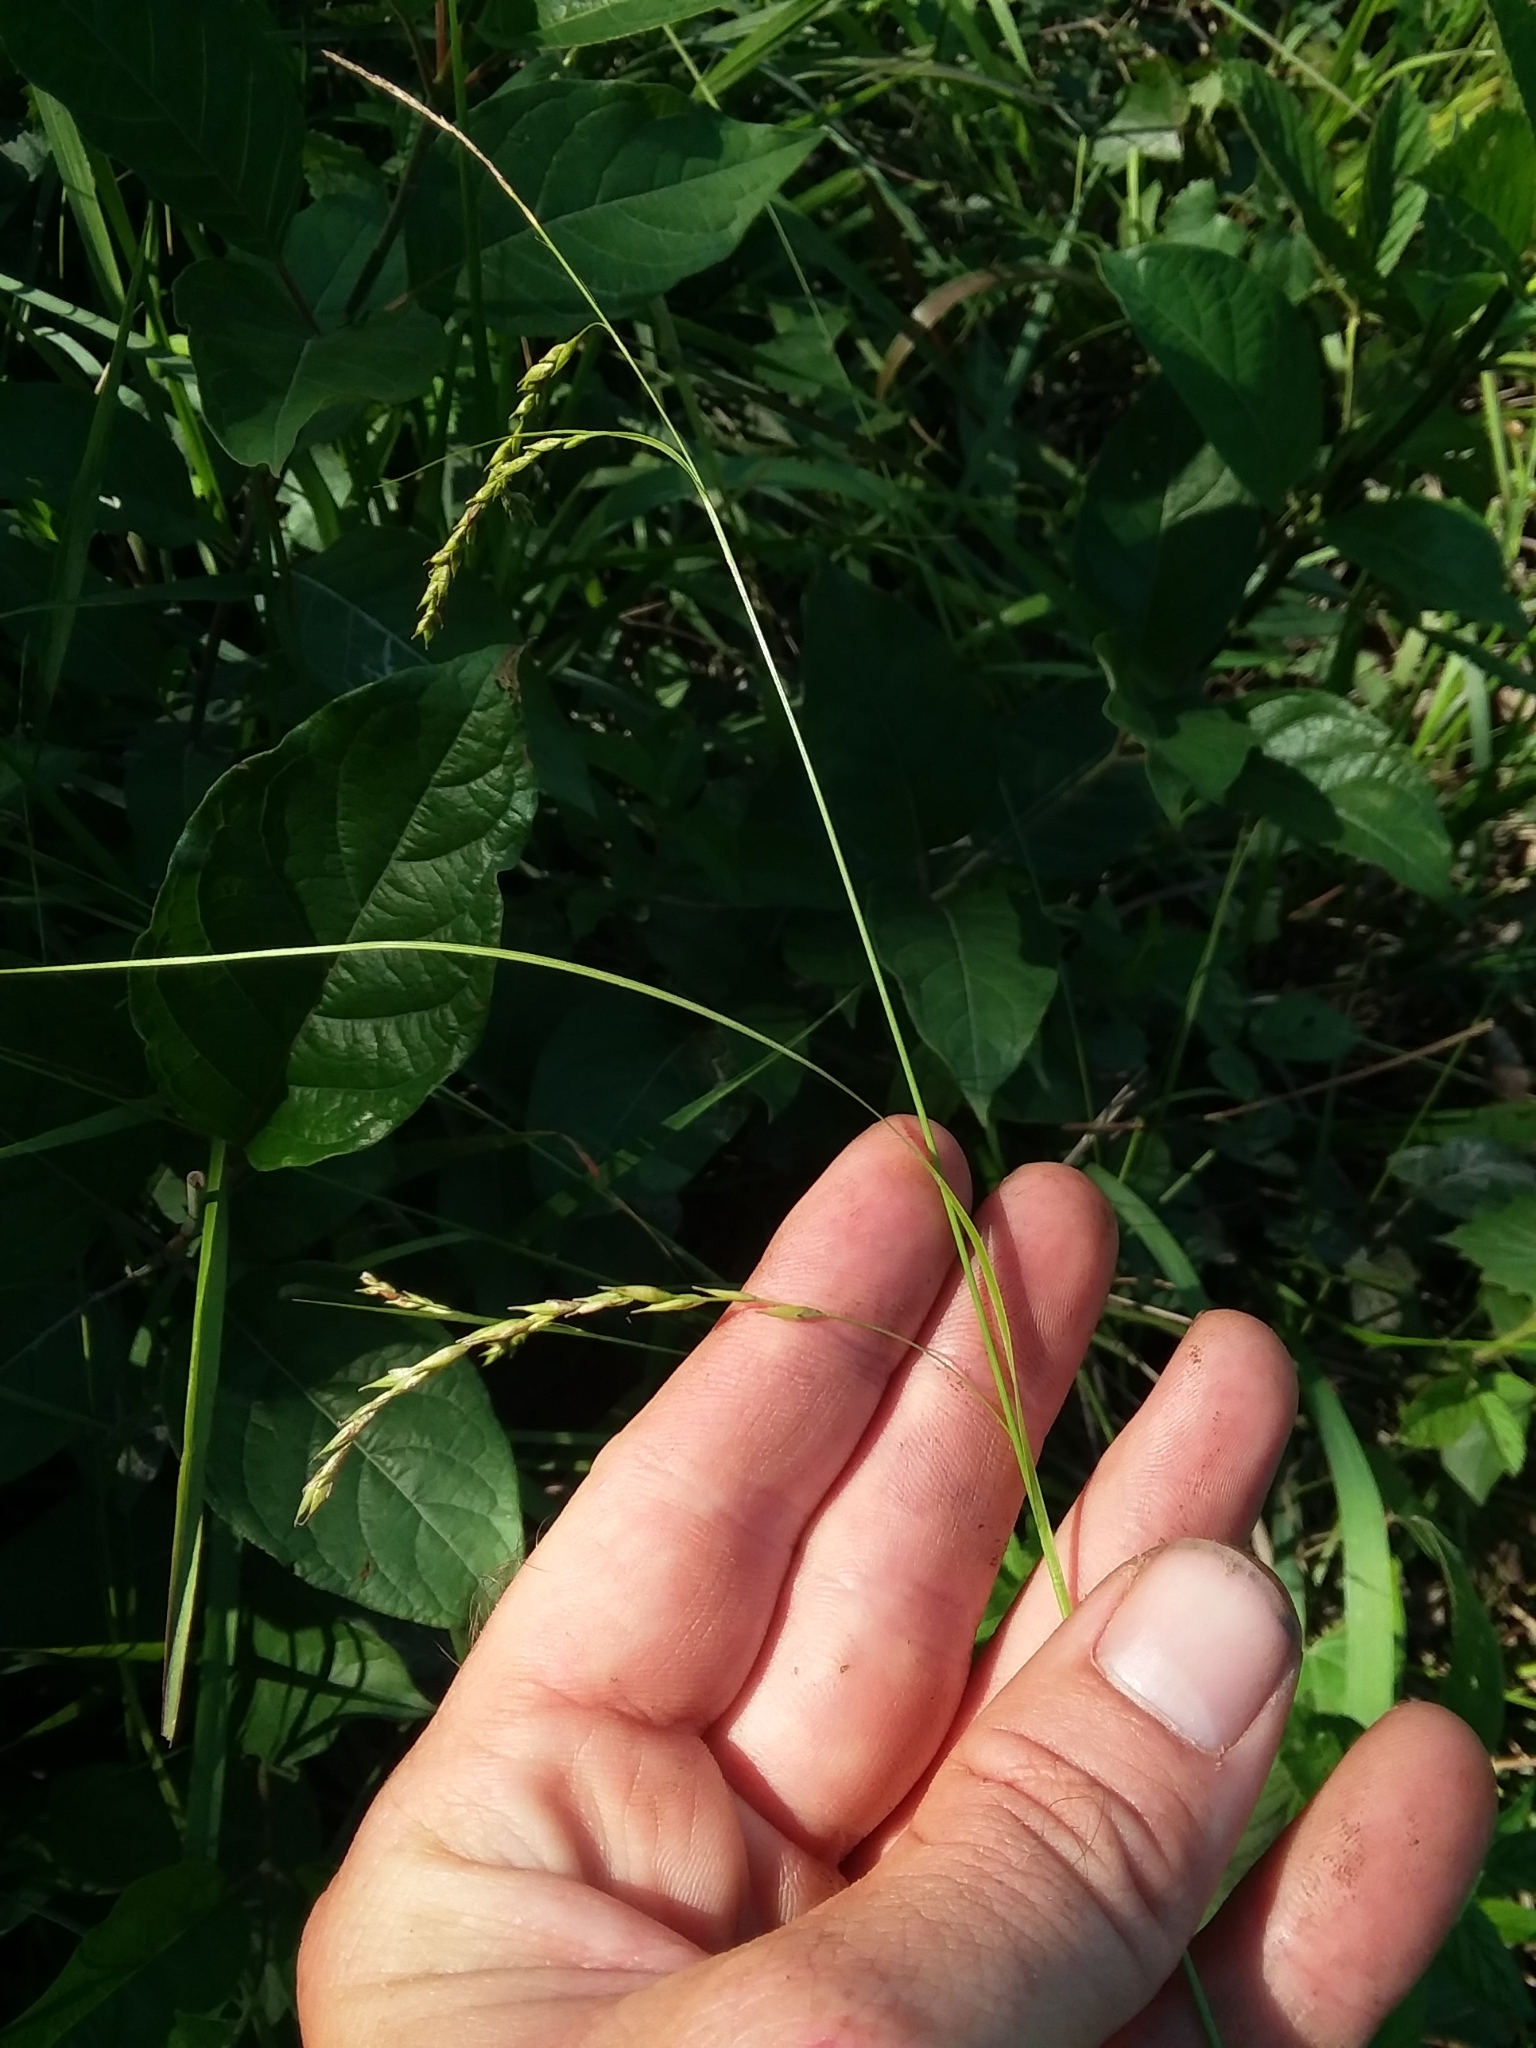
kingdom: Plantae
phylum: Tracheophyta
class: Liliopsida
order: Poales
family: Cyperaceae
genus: Carex
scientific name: Carex debilis
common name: White-edge sedge
